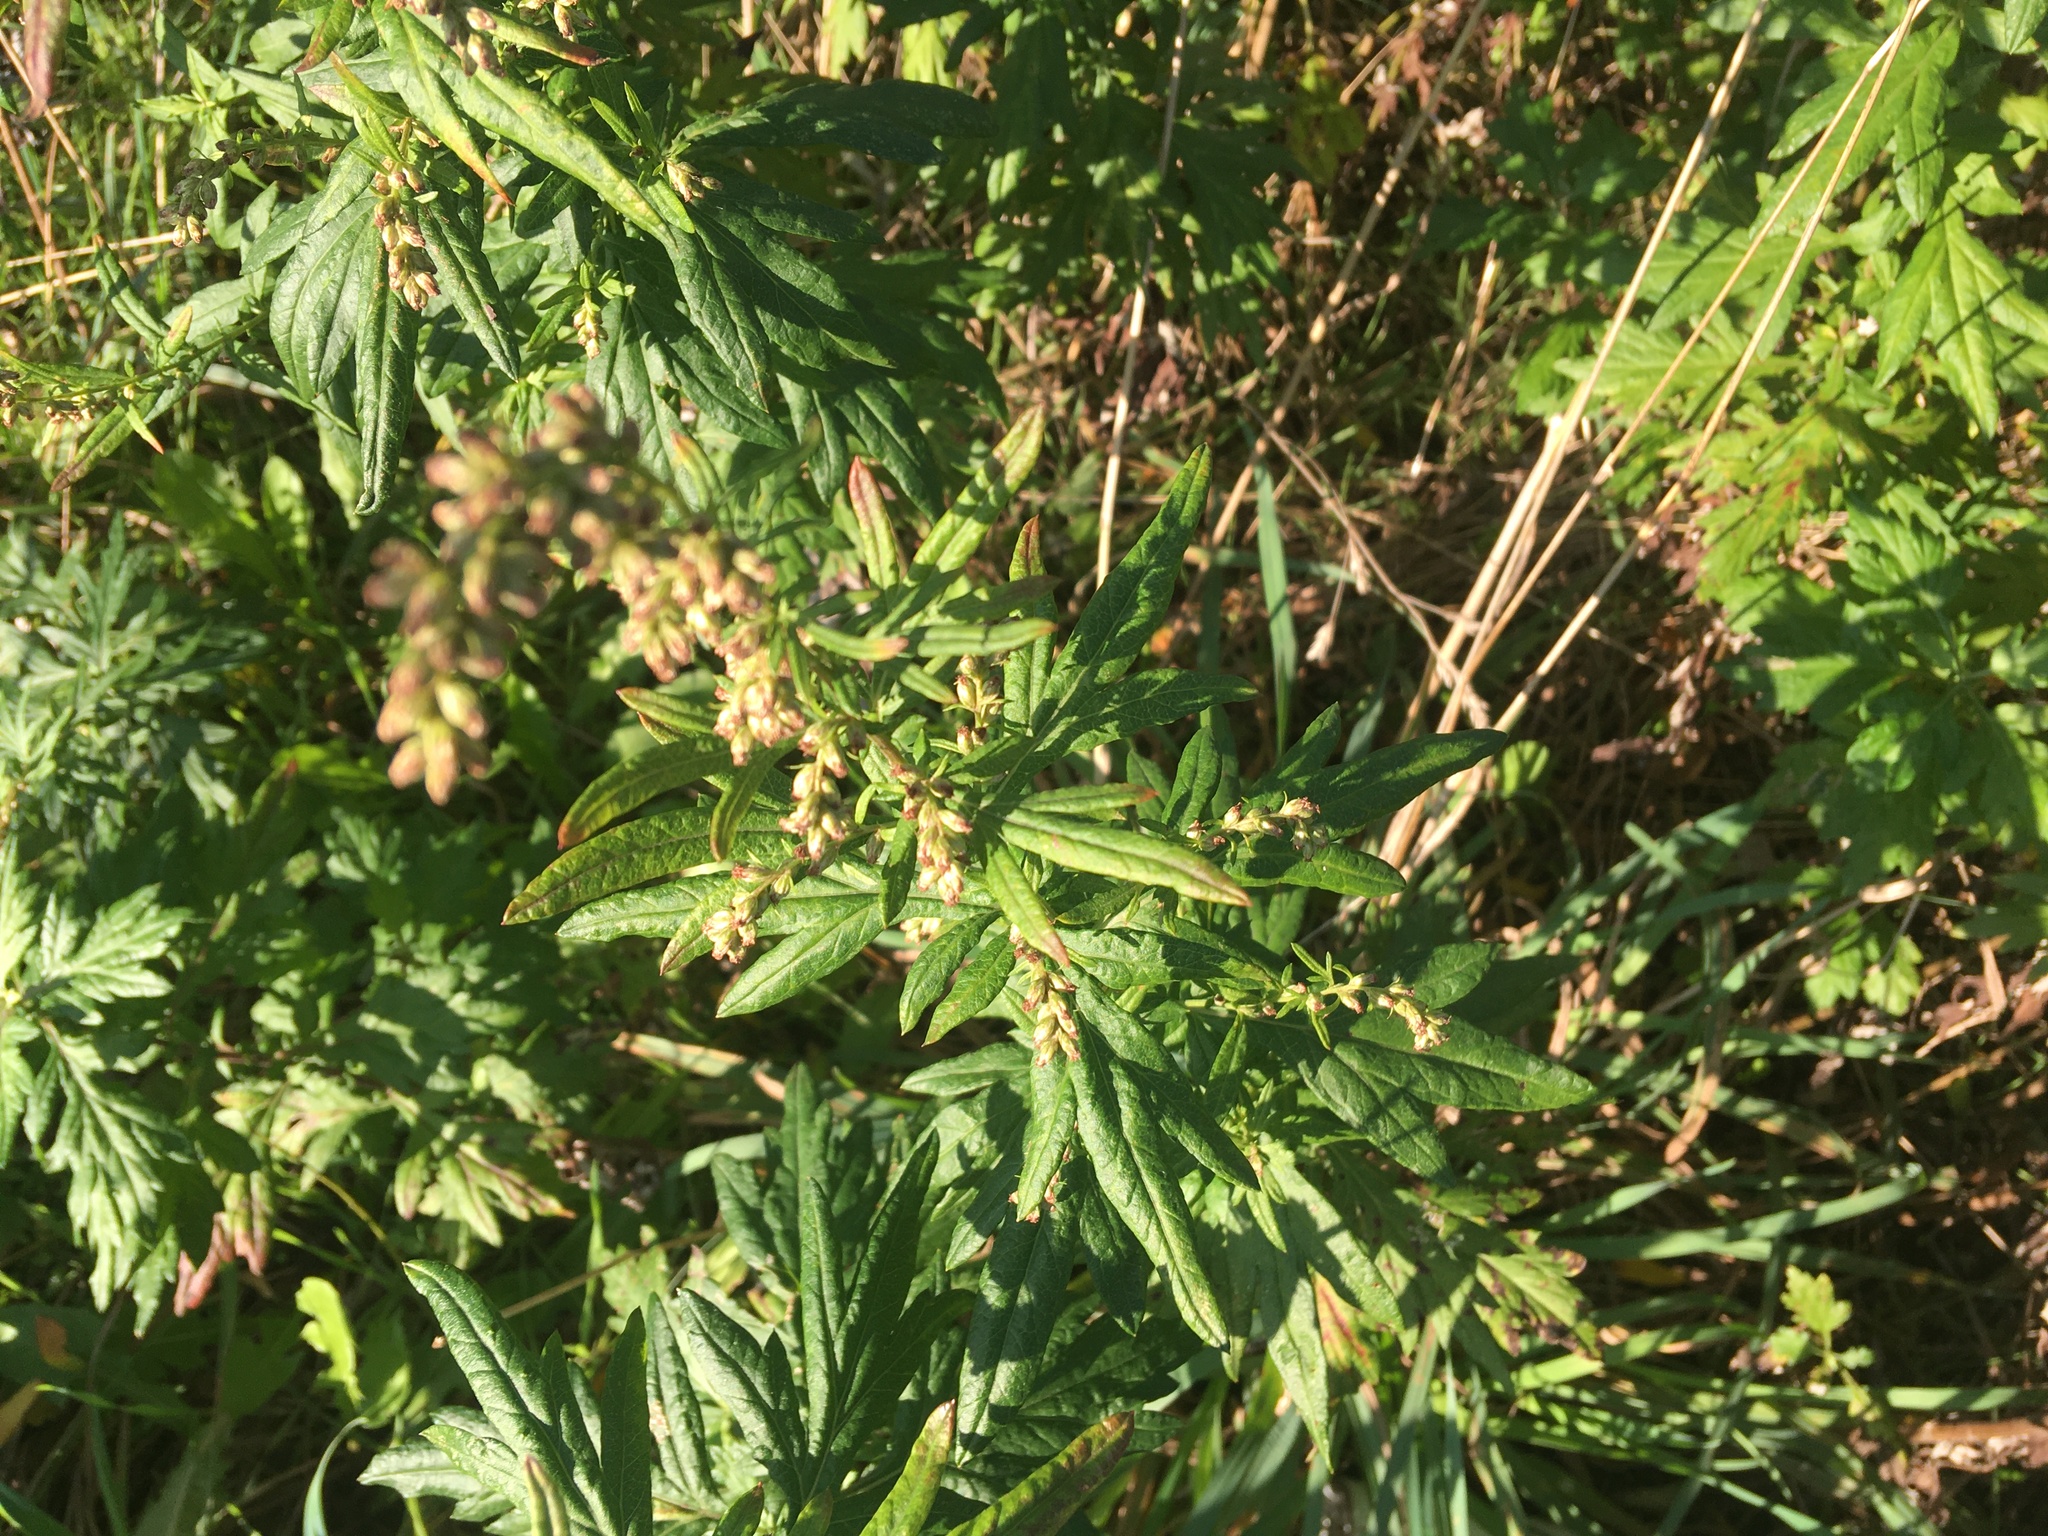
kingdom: Plantae
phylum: Tracheophyta
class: Magnoliopsida
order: Asterales
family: Asteraceae
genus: Artemisia
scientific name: Artemisia vulgaris
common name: Mugwort
